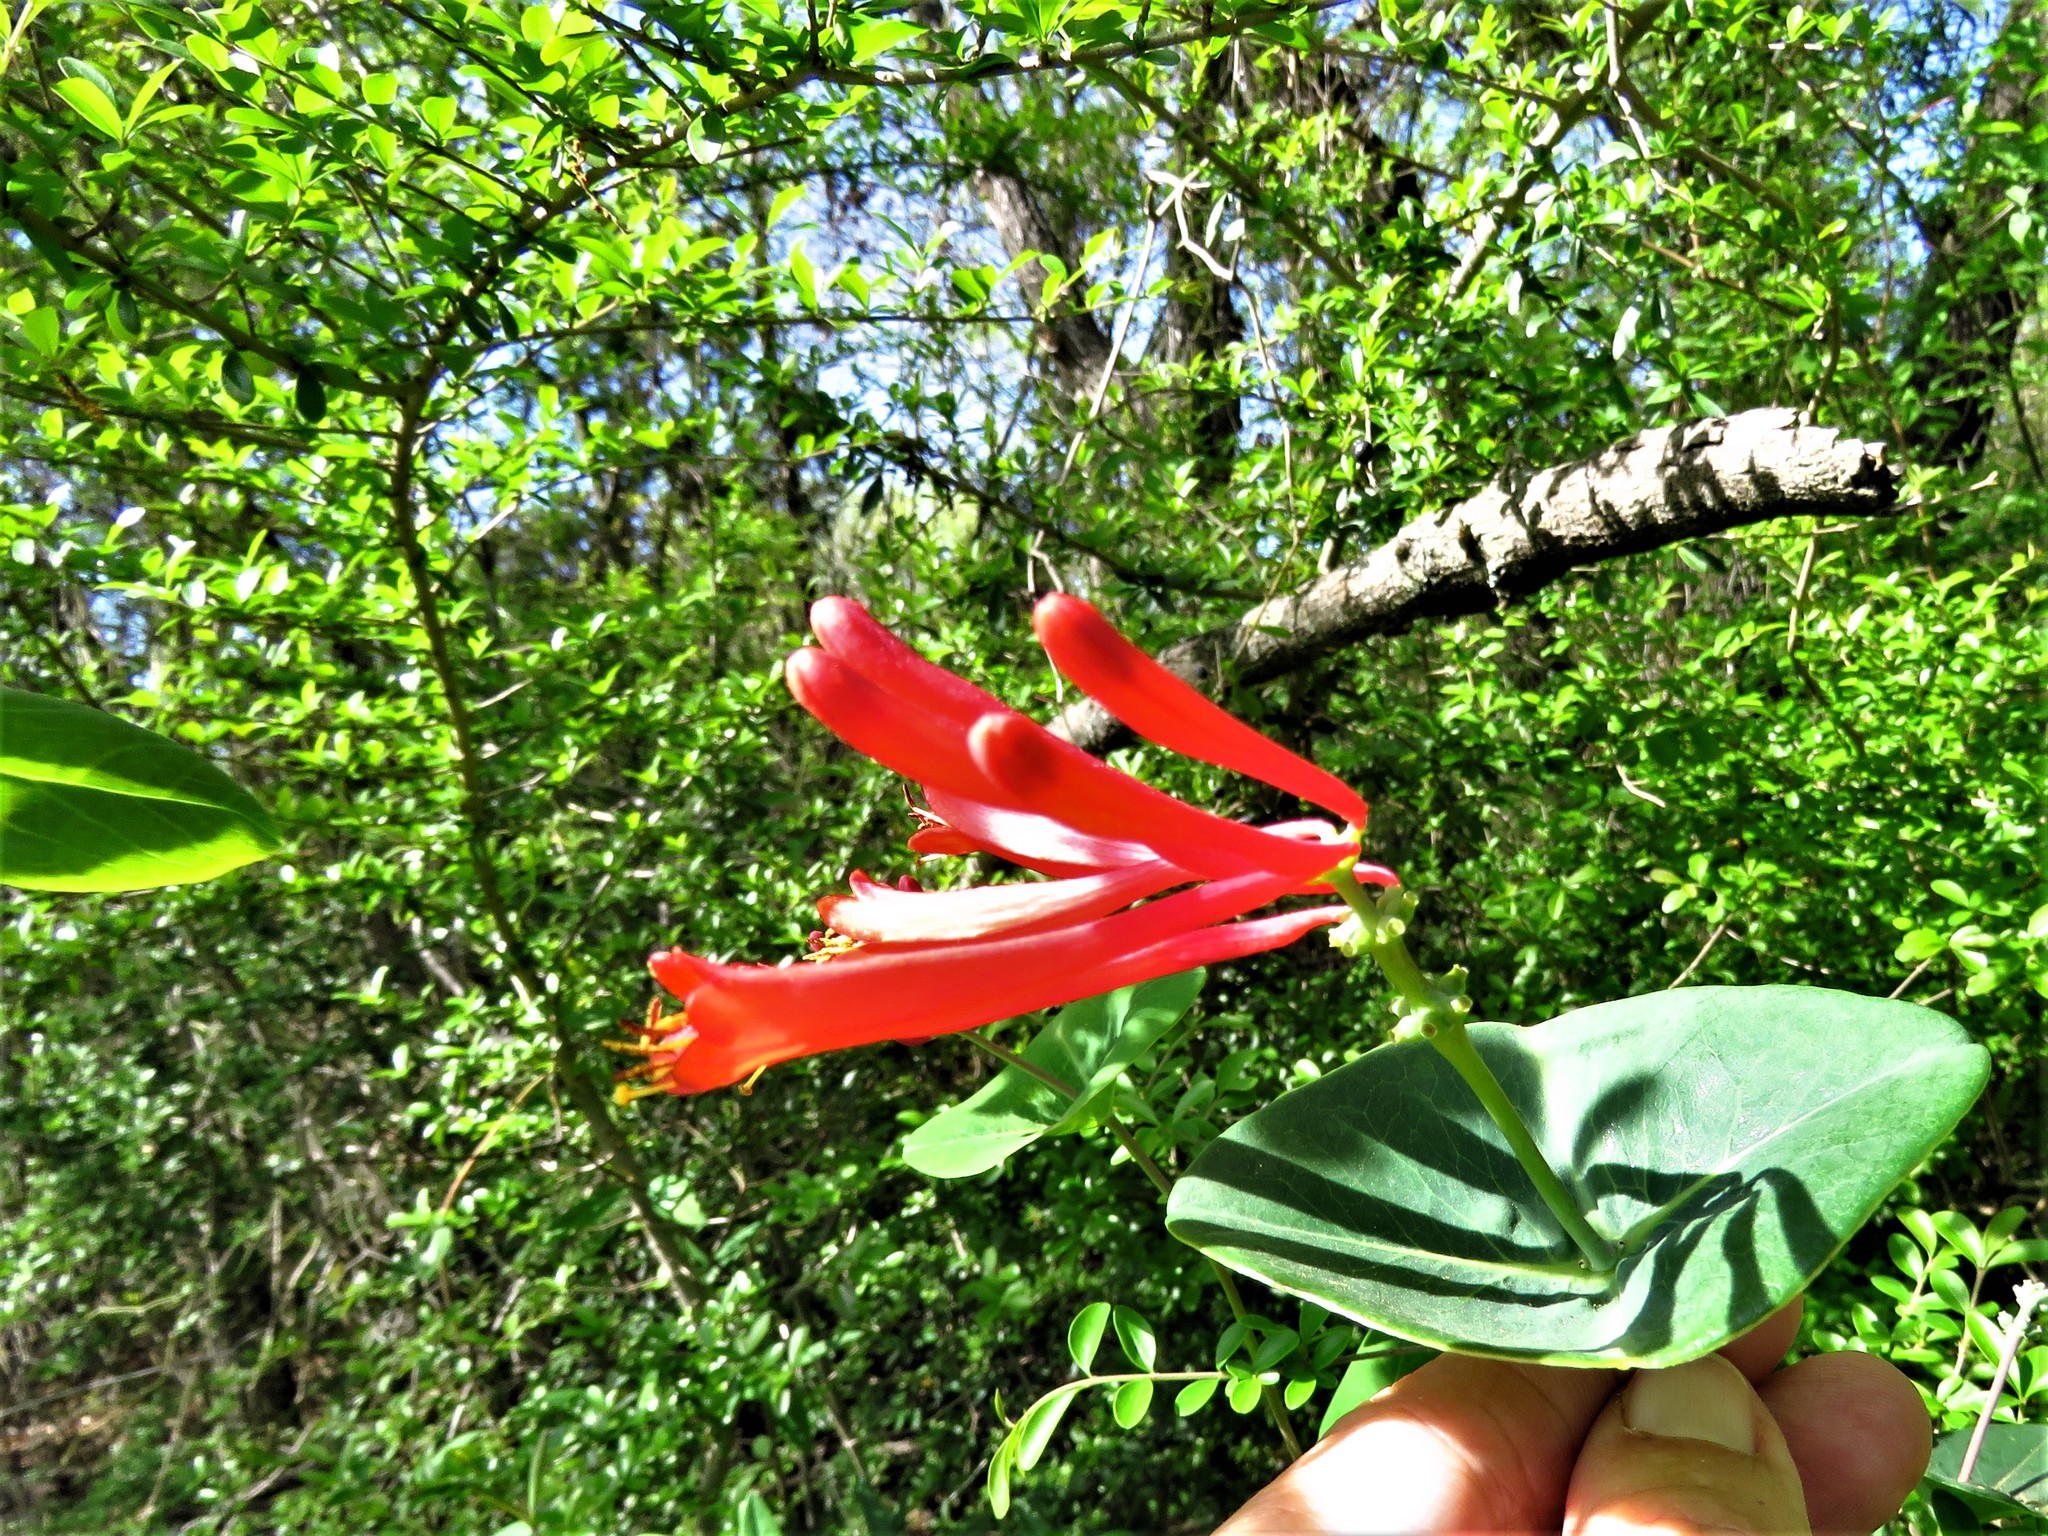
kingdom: Plantae
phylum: Tracheophyta
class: Magnoliopsida
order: Dipsacales
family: Caprifoliaceae
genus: Lonicera
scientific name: Lonicera sempervirens
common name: Coral honeysuckle
